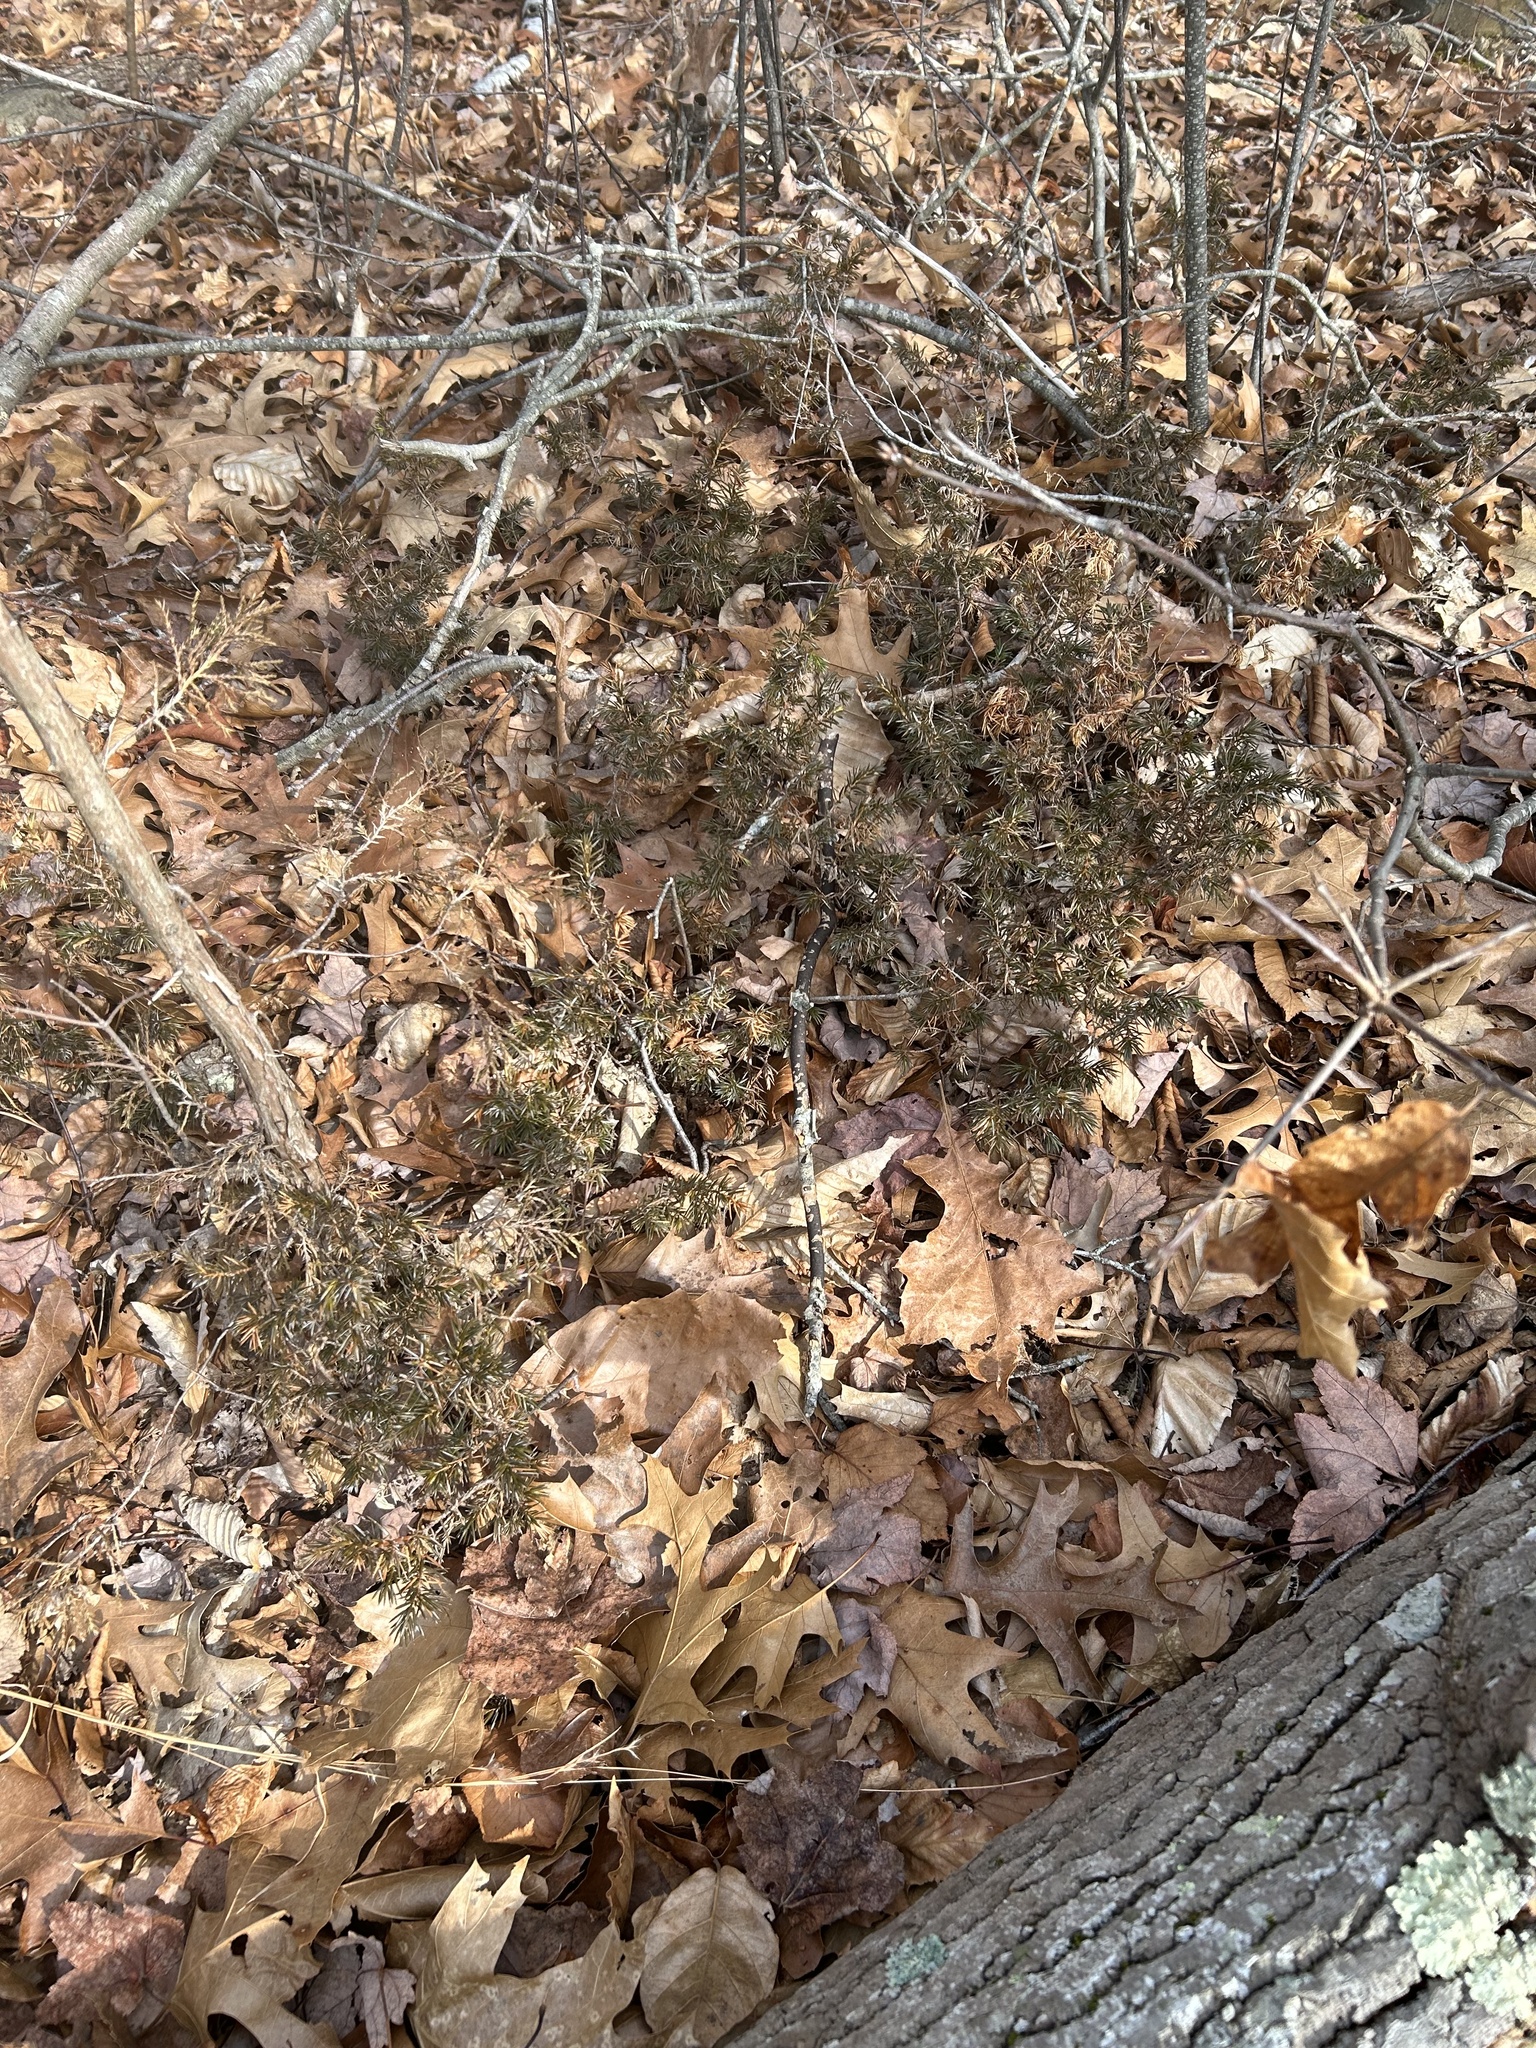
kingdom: Plantae
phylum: Tracheophyta
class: Pinopsida
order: Pinales
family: Cupressaceae
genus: Juniperus
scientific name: Juniperus communis
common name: Common juniper
